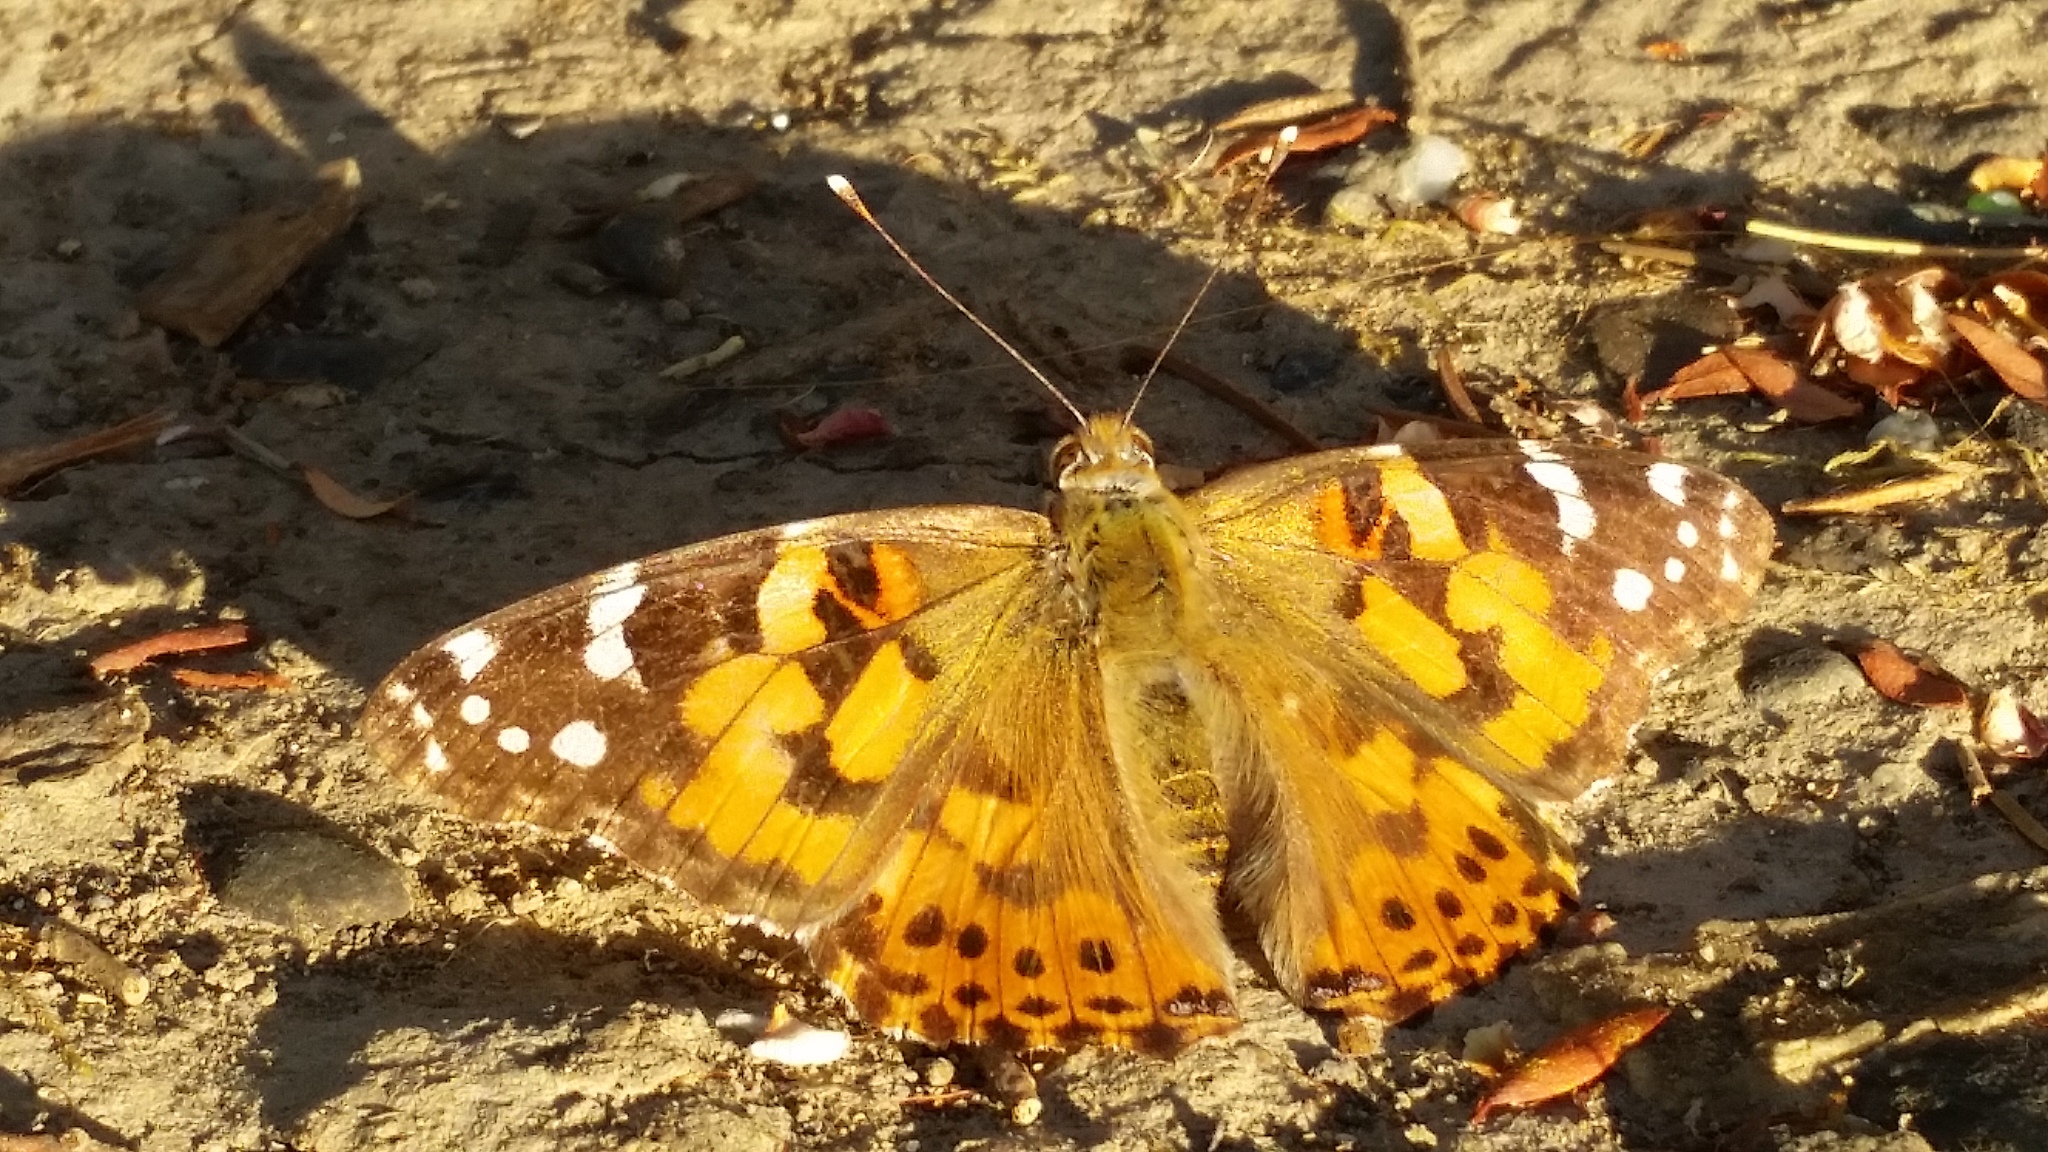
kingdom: Animalia
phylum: Arthropoda
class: Insecta
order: Lepidoptera
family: Nymphalidae
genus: Vanessa
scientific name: Vanessa cardui
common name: Painted lady
